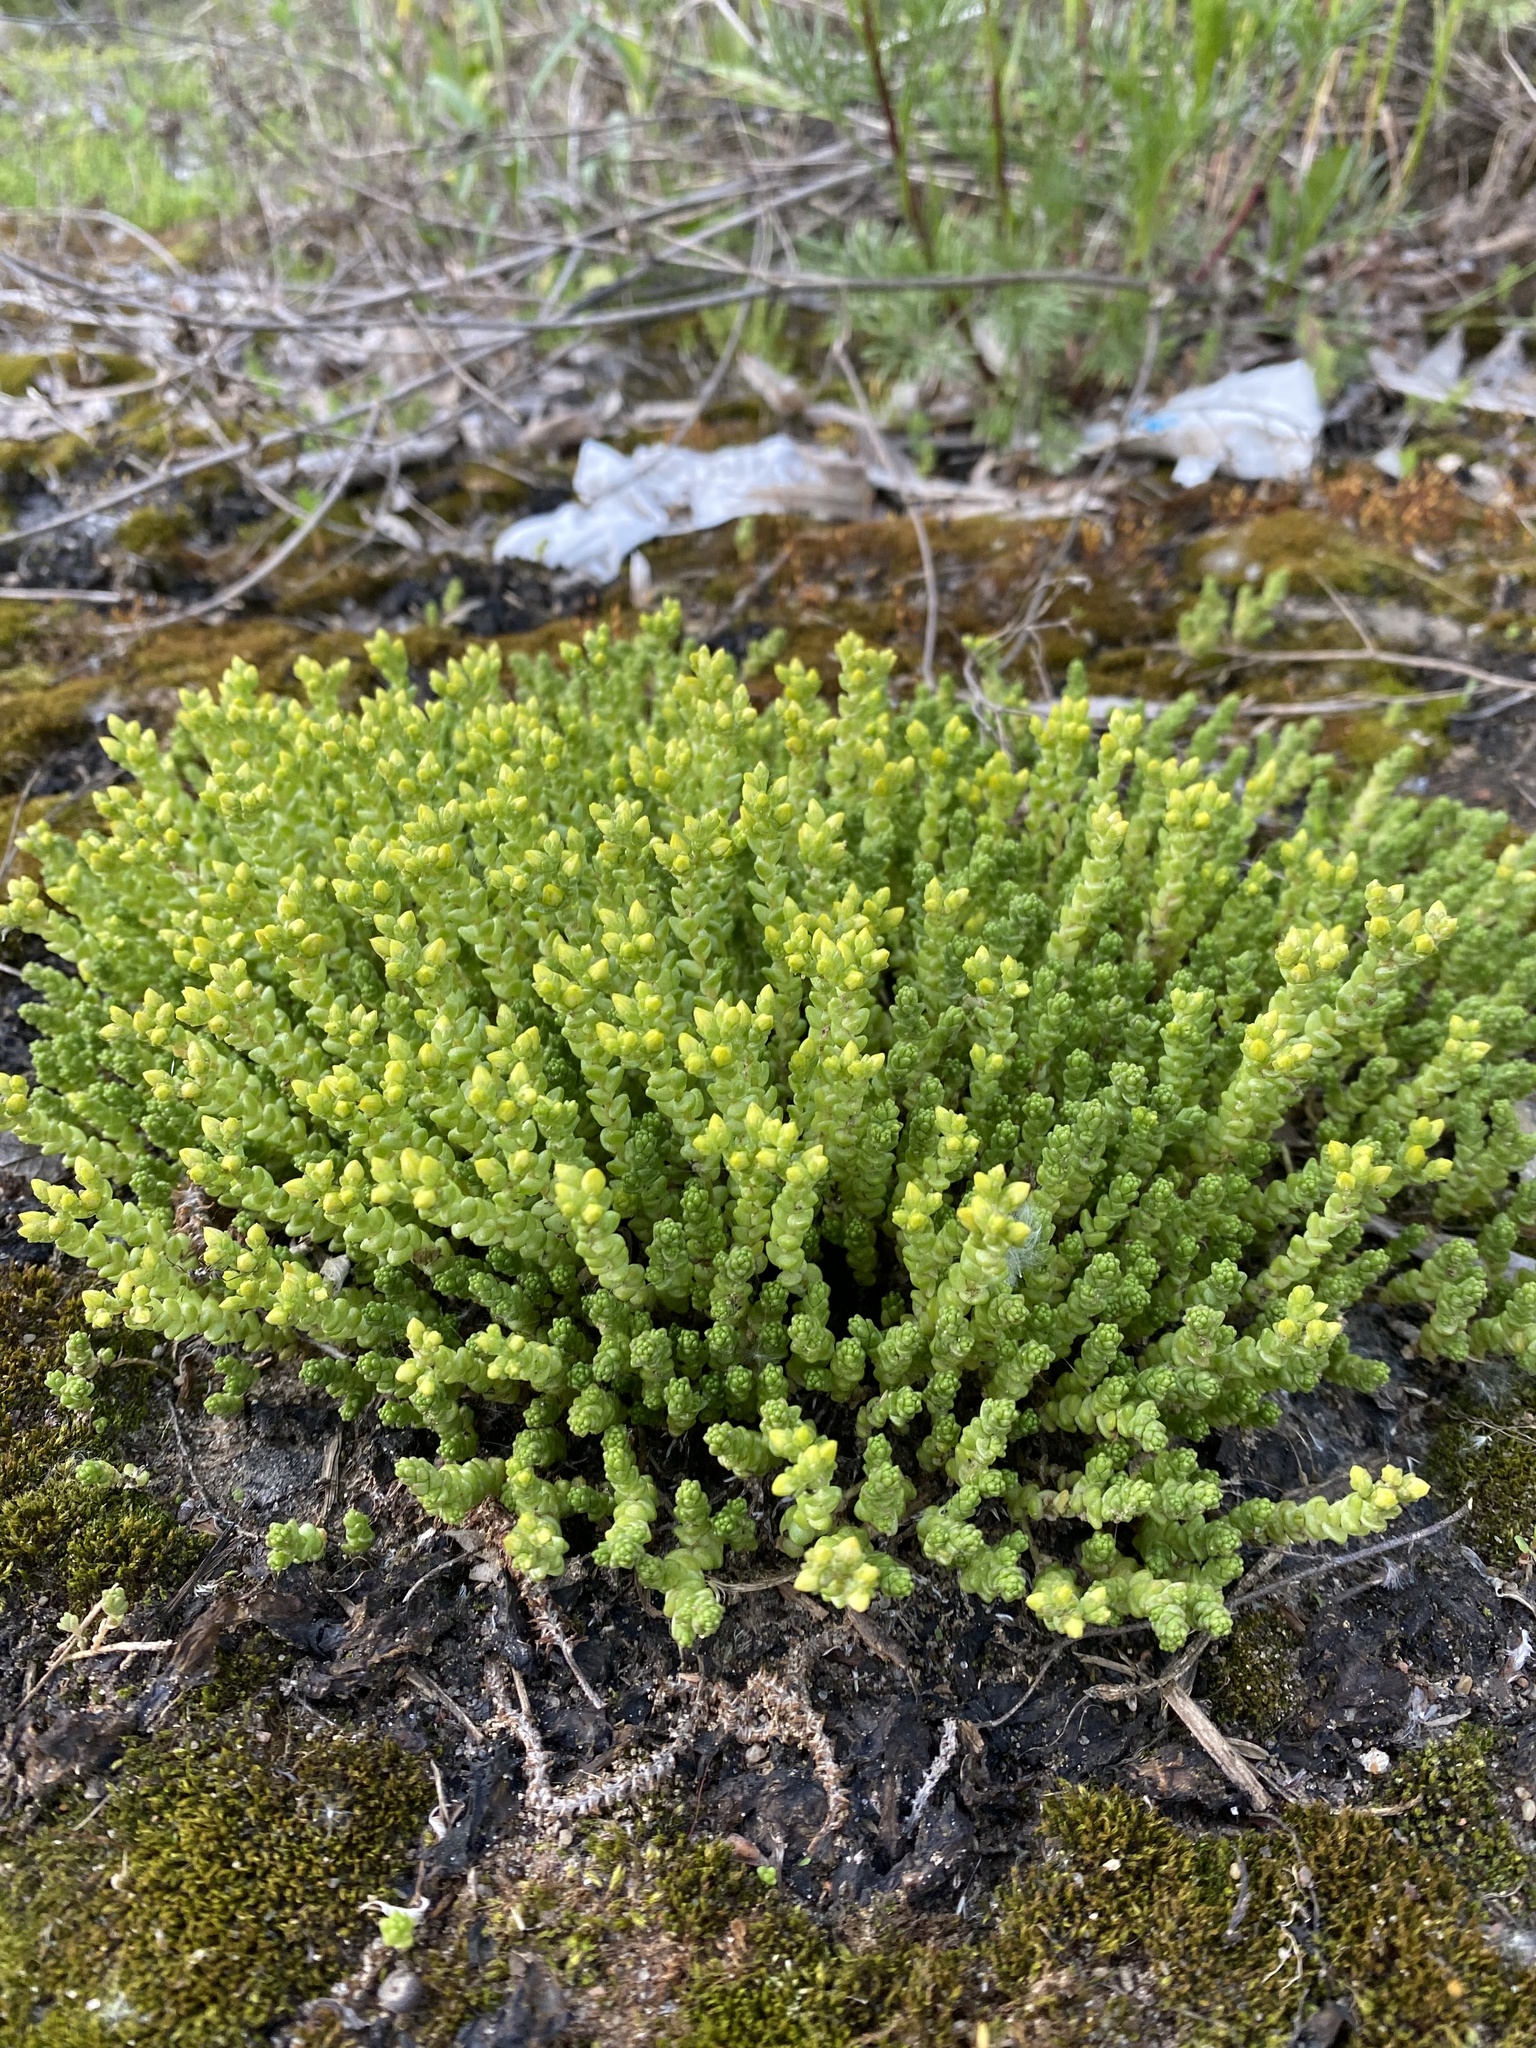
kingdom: Plantae
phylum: Tracheophyta
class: Magnoliopsida
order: Saxifragales
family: Crassulaceae
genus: Sedum
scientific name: Sedum acre
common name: Biting stonecrop
